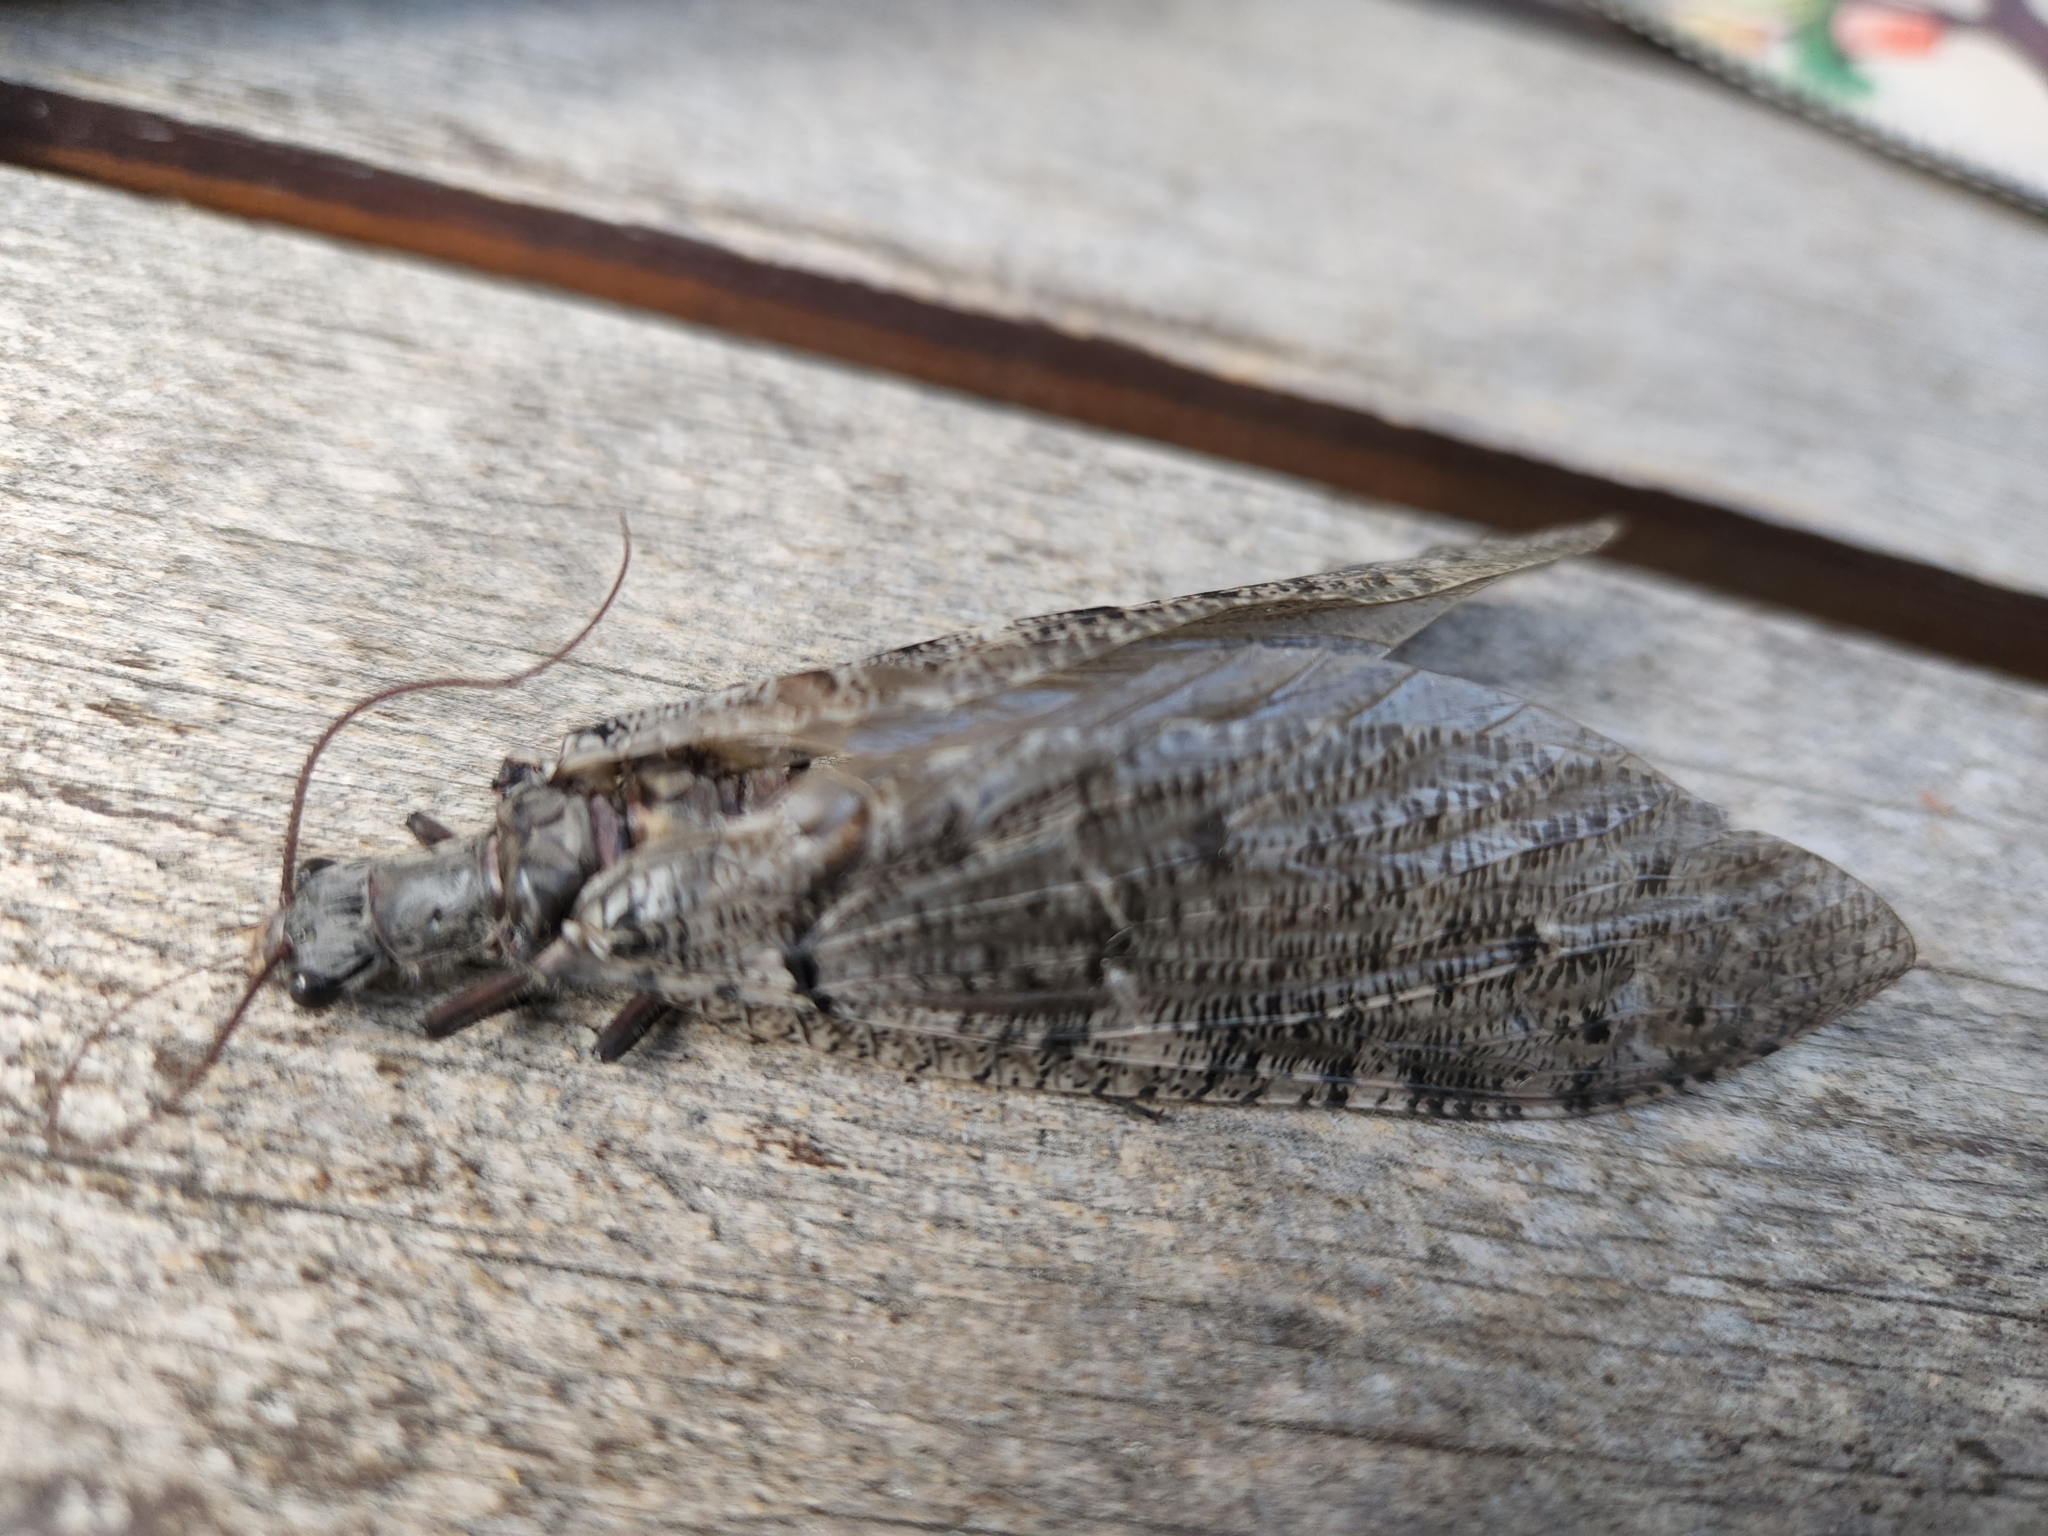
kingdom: Animalia
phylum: Arthropoda
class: Insecta
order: Megaloptera
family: Corydalidae
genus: Neohermes
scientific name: Neohermes filicornis
